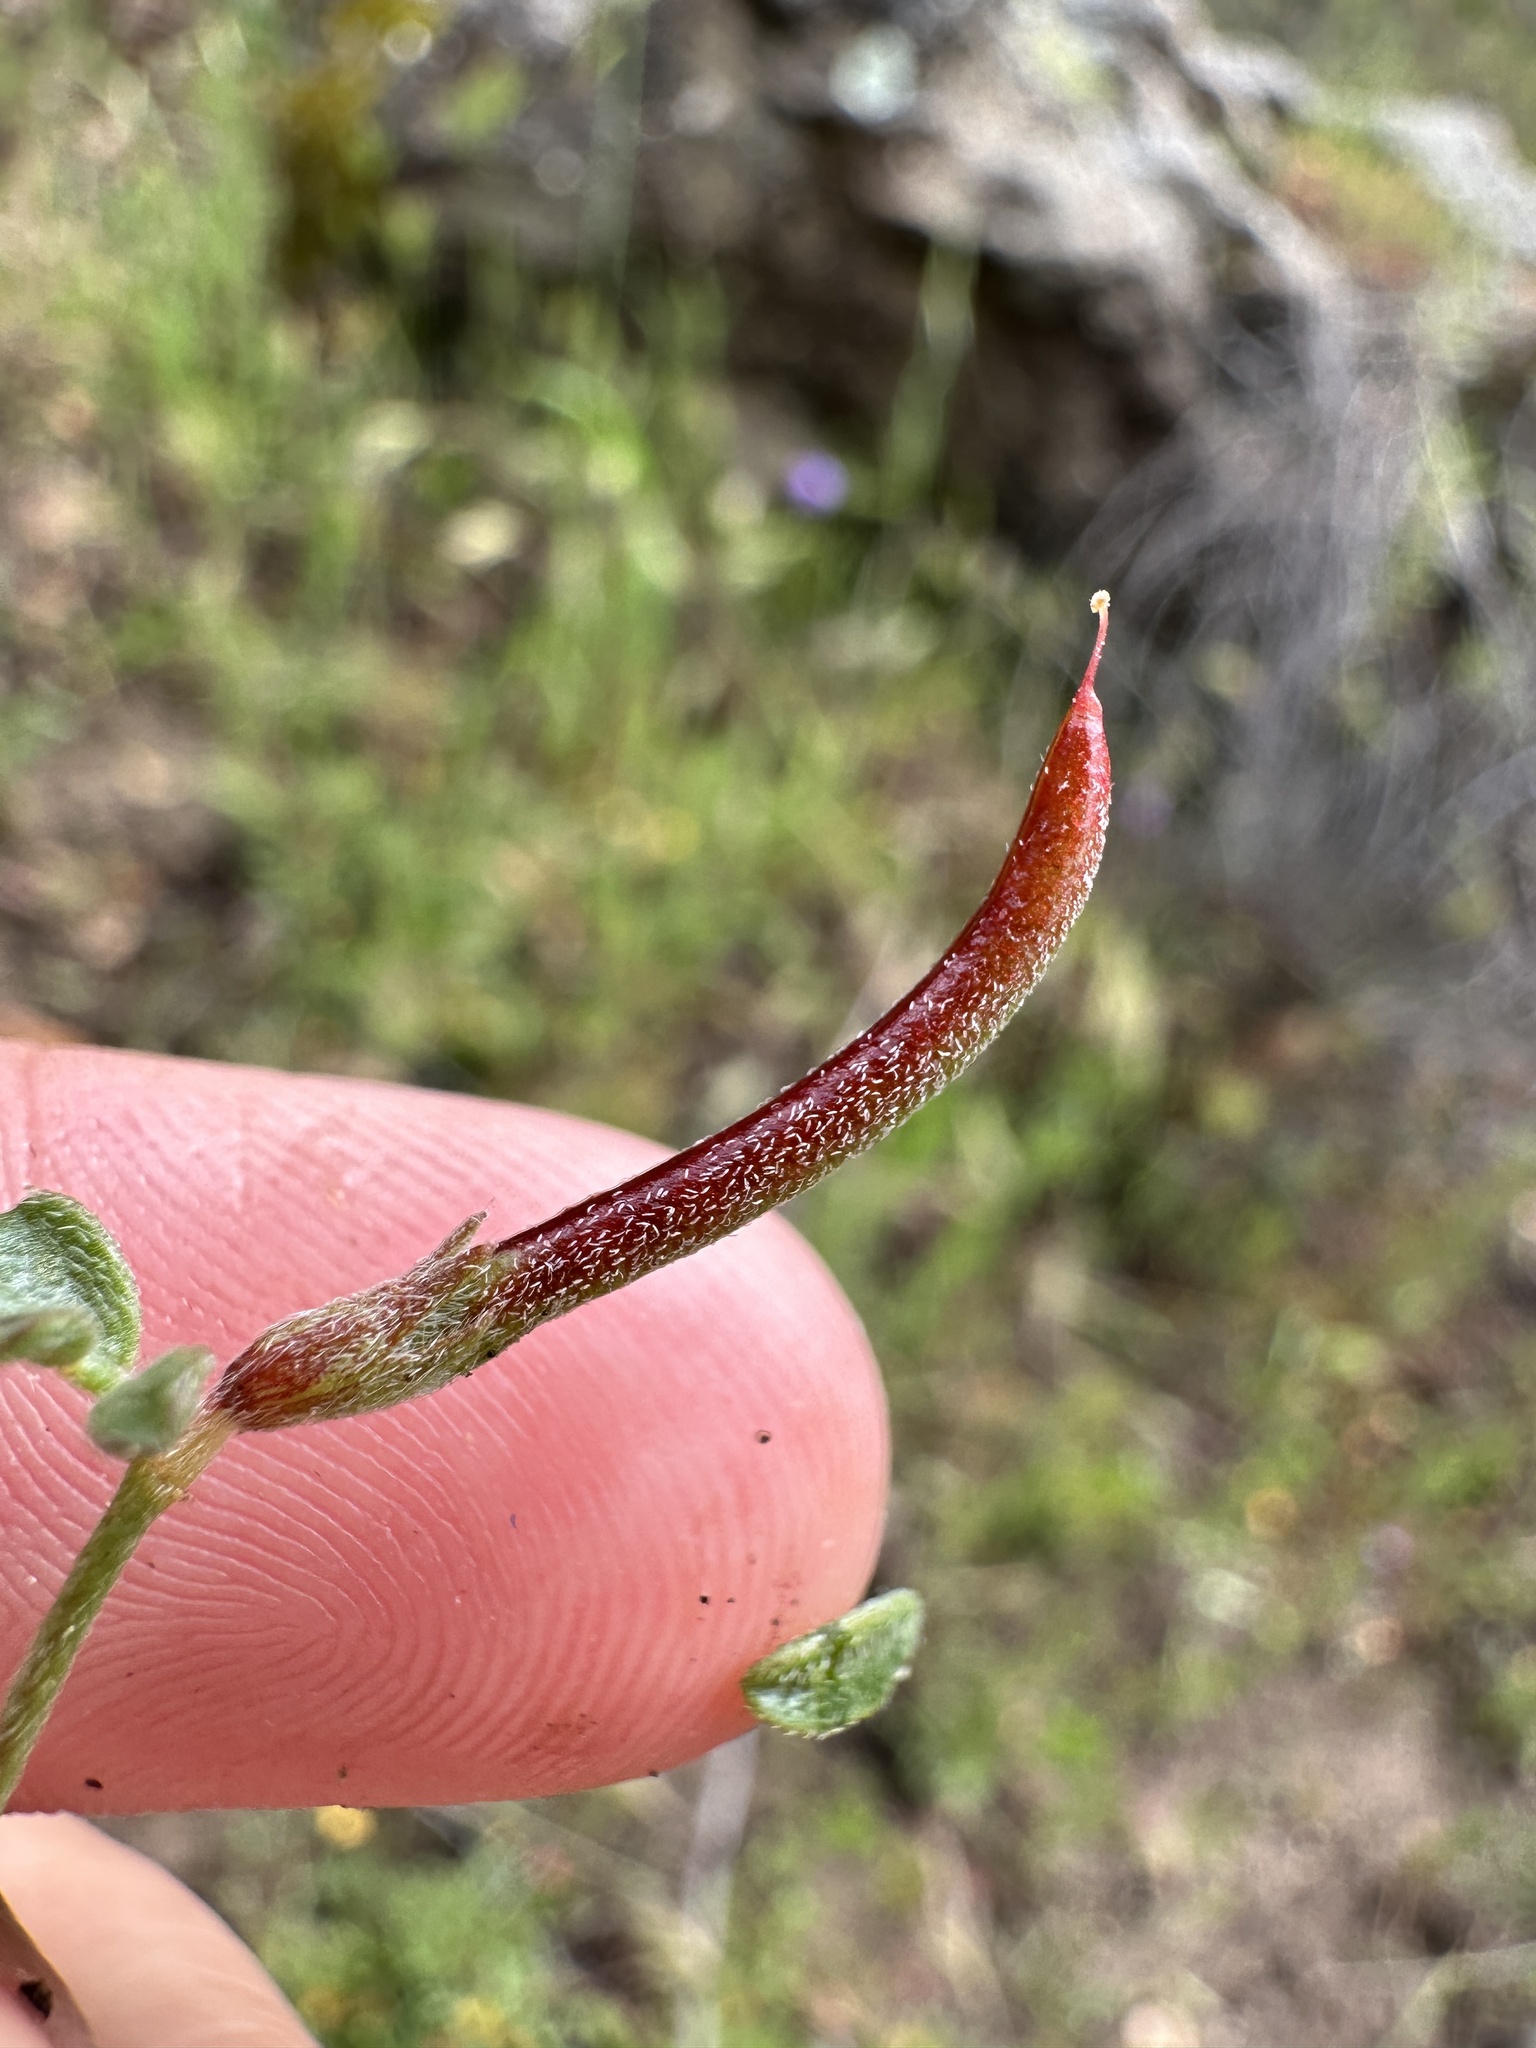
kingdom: Plantae
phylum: Tracheophyta
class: Magnoliopsida
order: Fabales
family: Fabaceae
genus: Acmispon
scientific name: Acmispon strigosus
